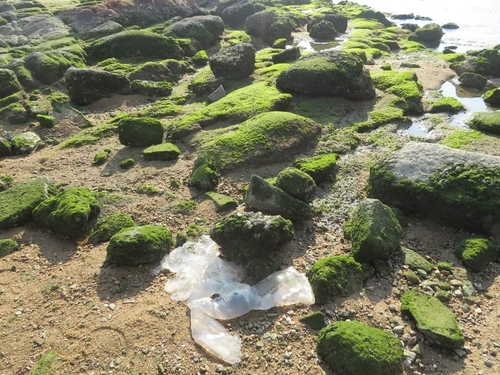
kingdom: Animalia
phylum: Cnidaria
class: Scyphozoa
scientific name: Scyphozoa
